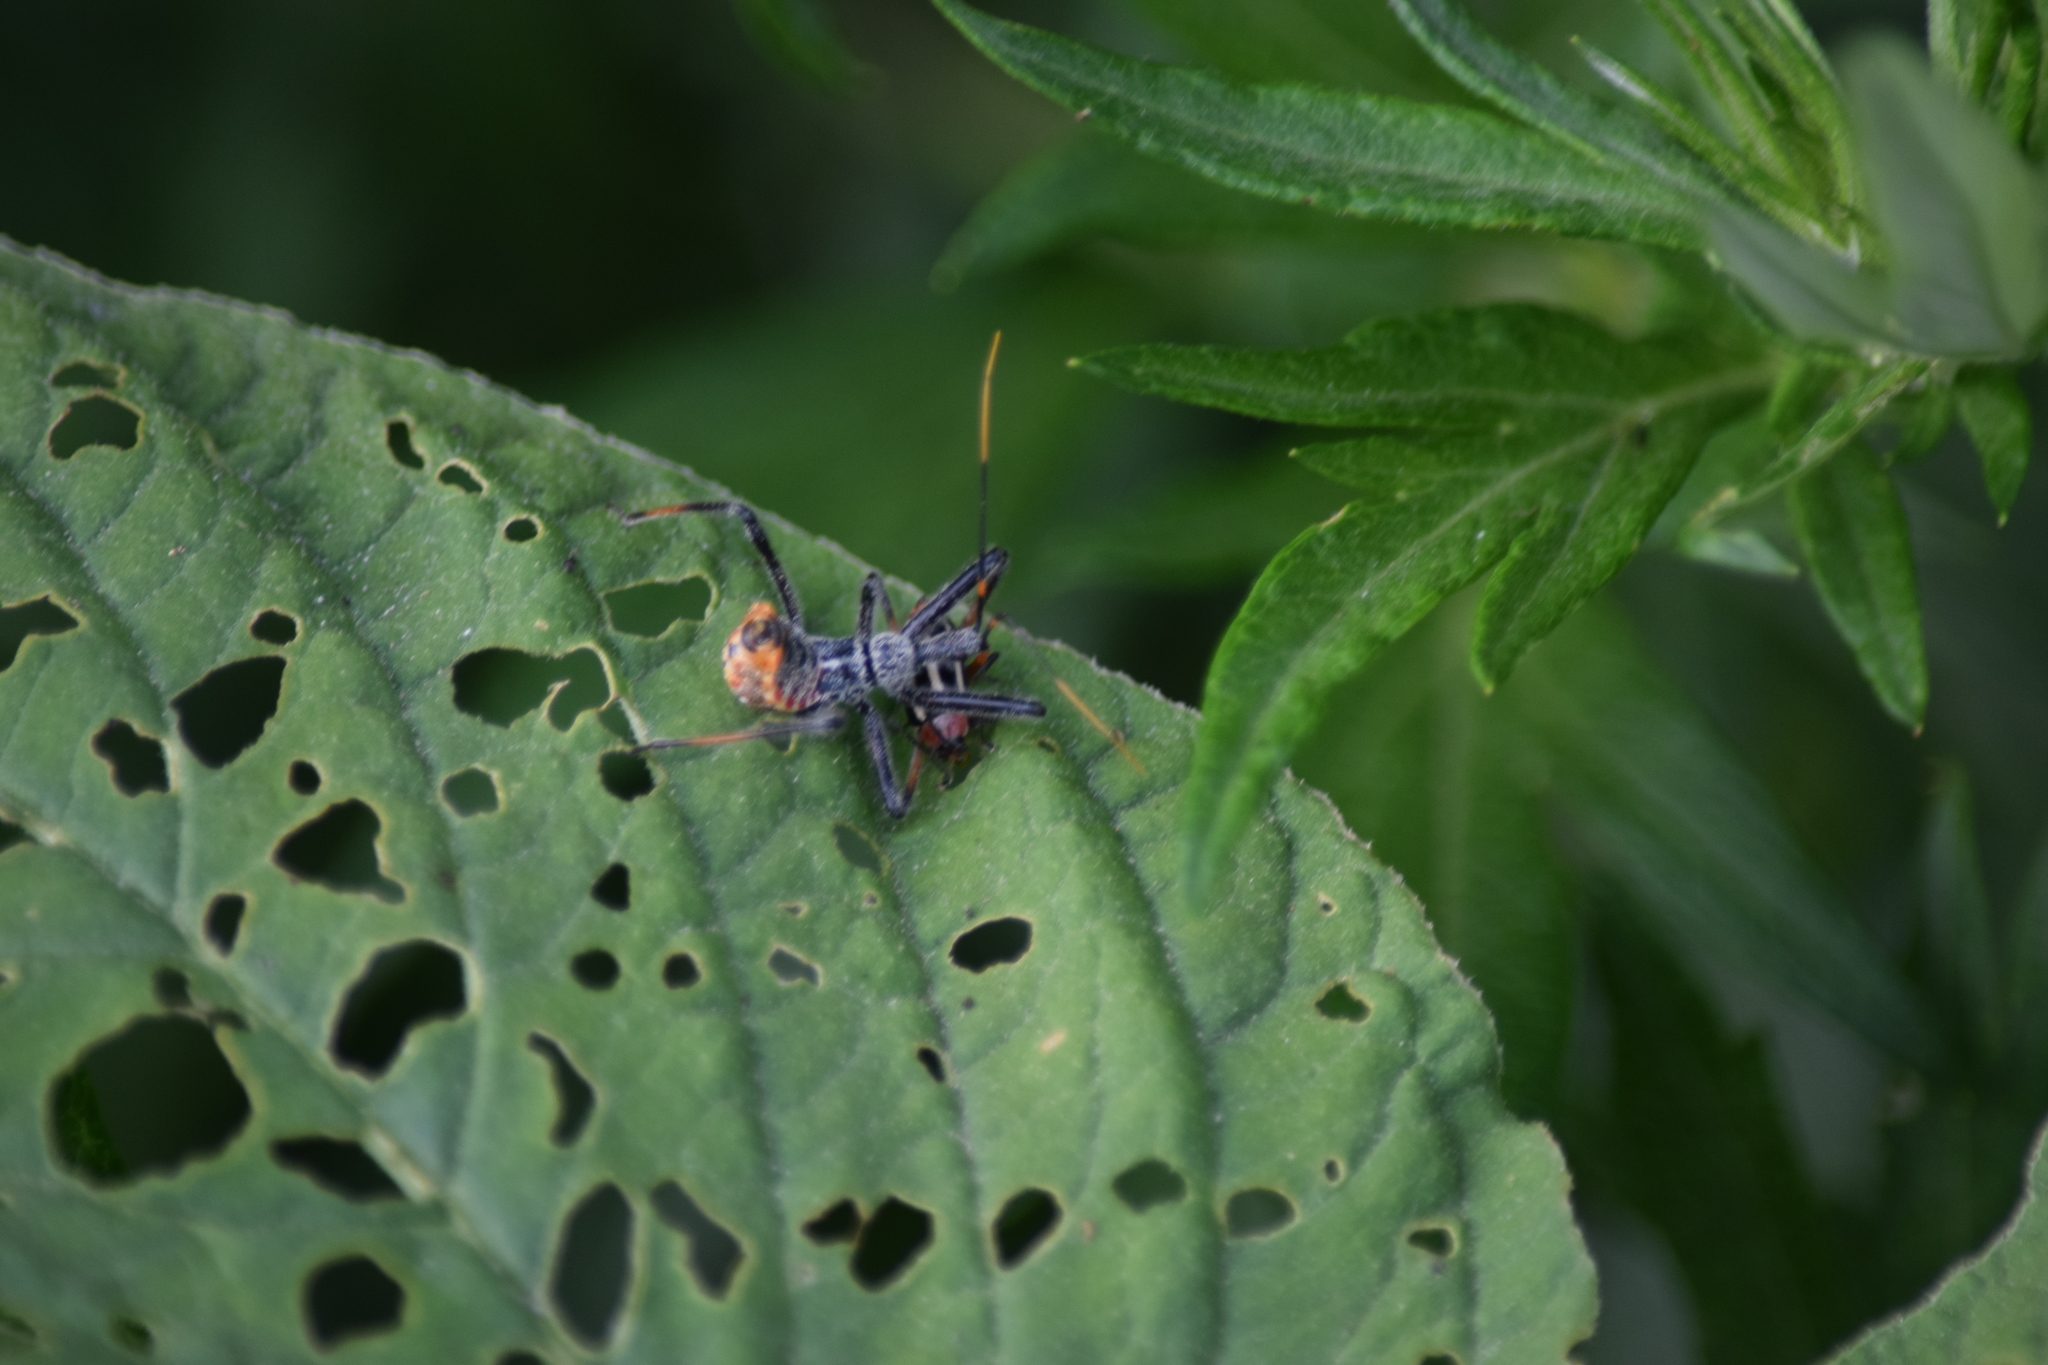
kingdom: Animalia
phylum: Arthropoda
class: Insecta
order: Hemiptera
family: Reduviidae
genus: Arilus
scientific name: Arilus cristatus
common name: North american wheel bug
